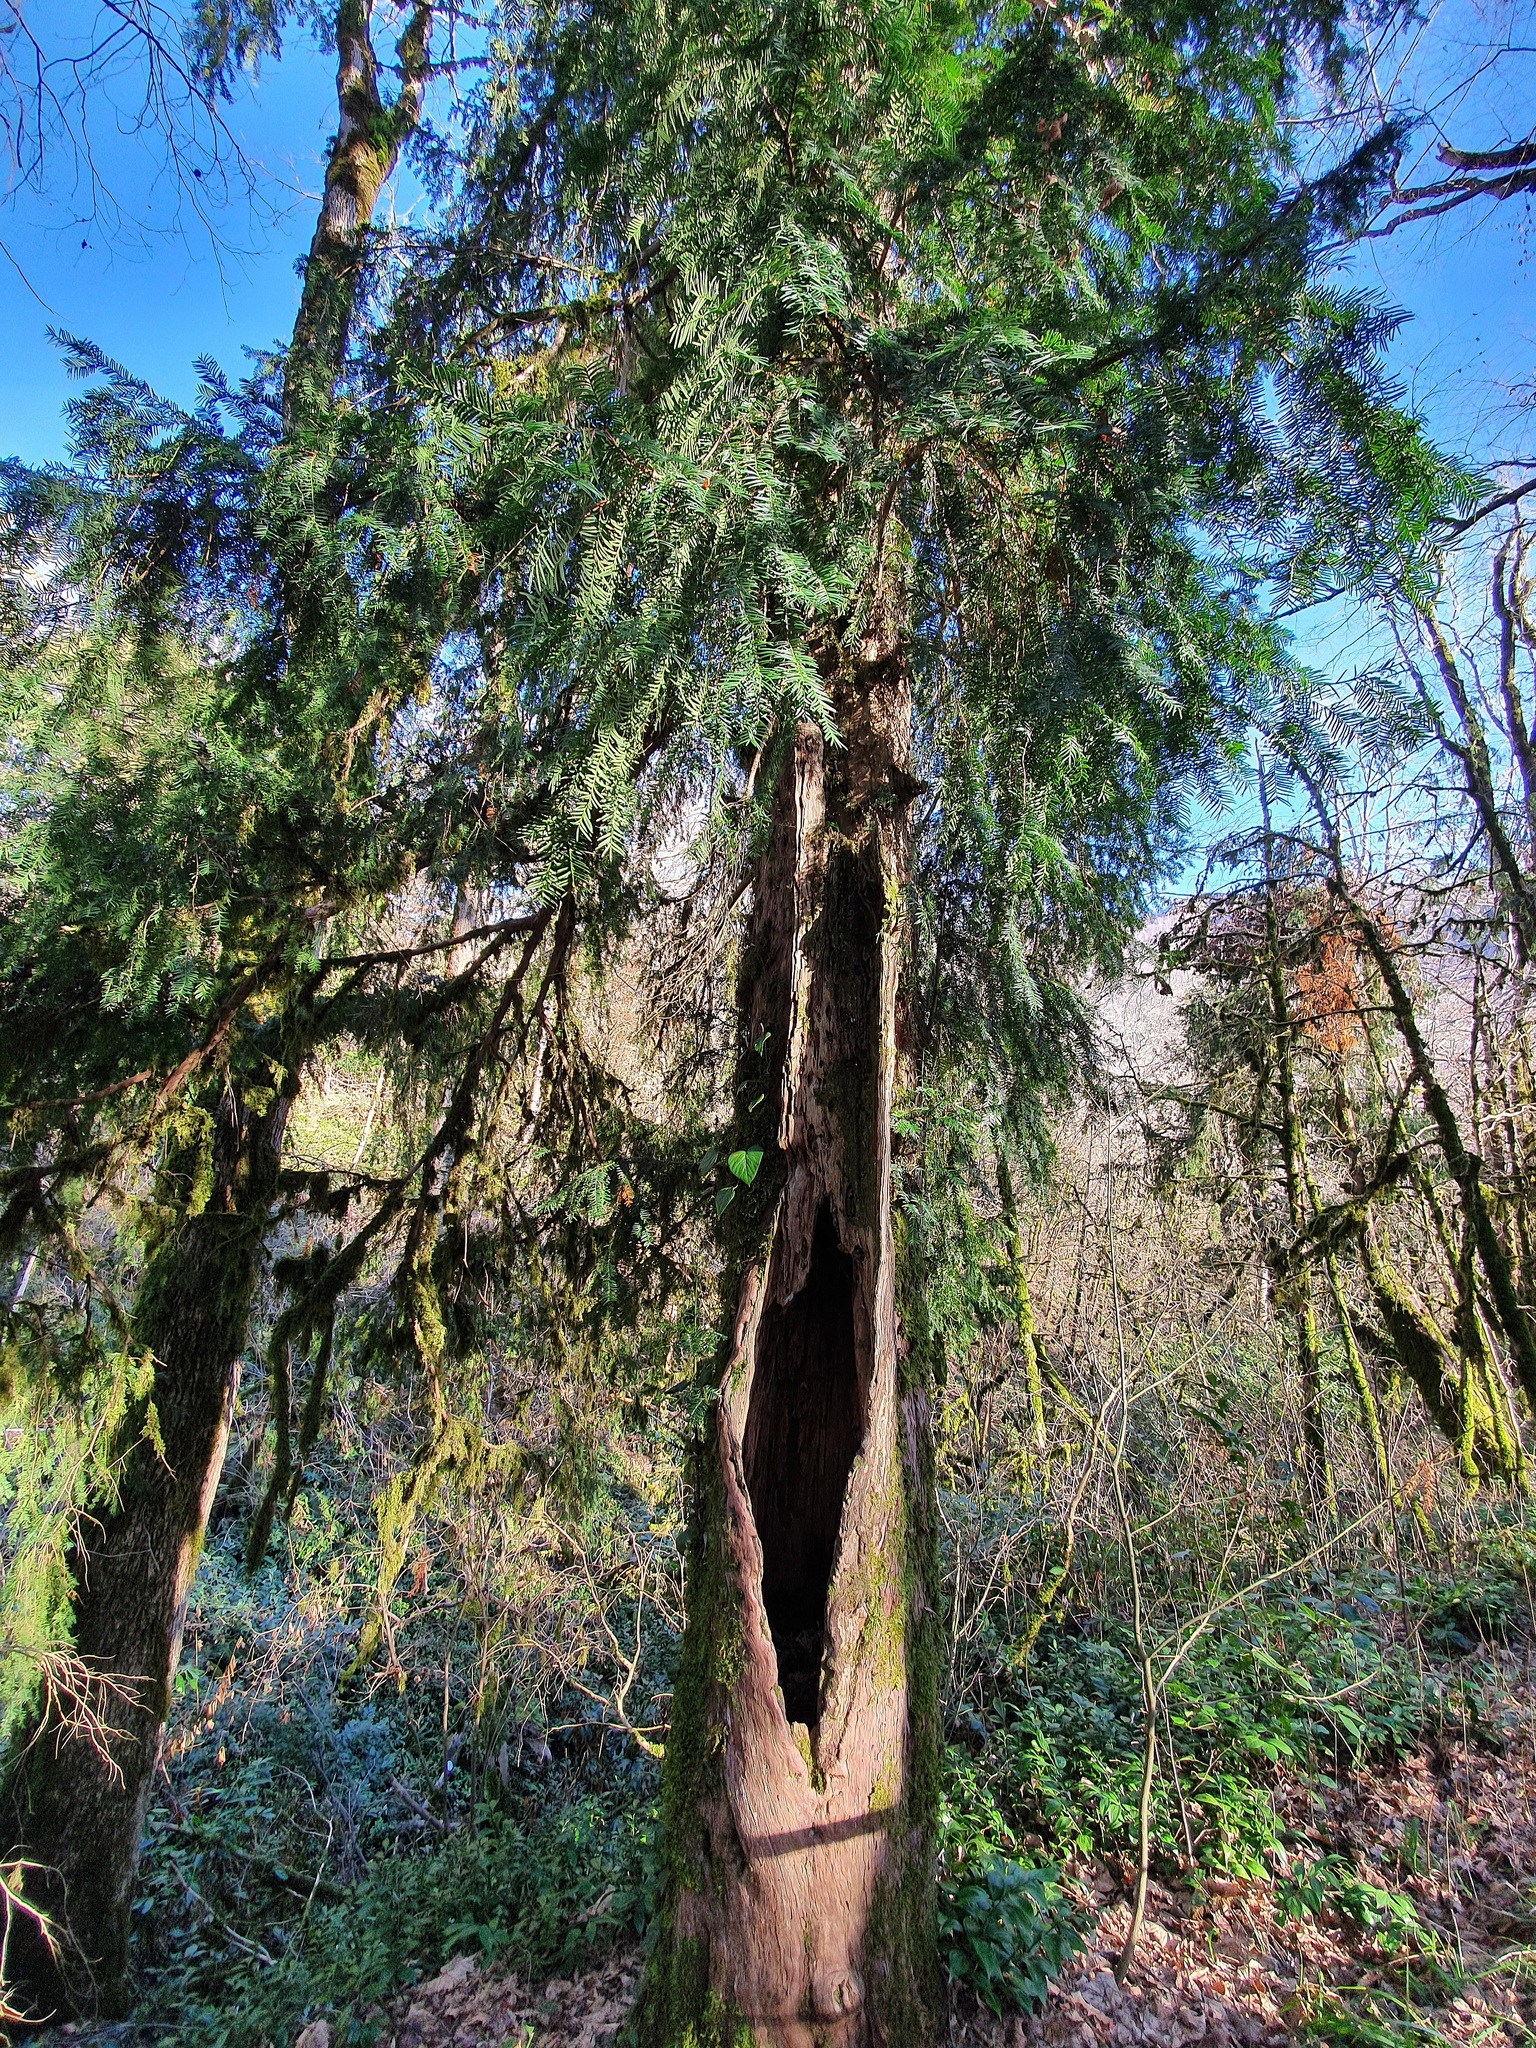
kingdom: Plantae
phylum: Tracheophyta
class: Pinopsida
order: Pinales
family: Taxaceae
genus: Taxus
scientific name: Taxus baccata
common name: Yew
